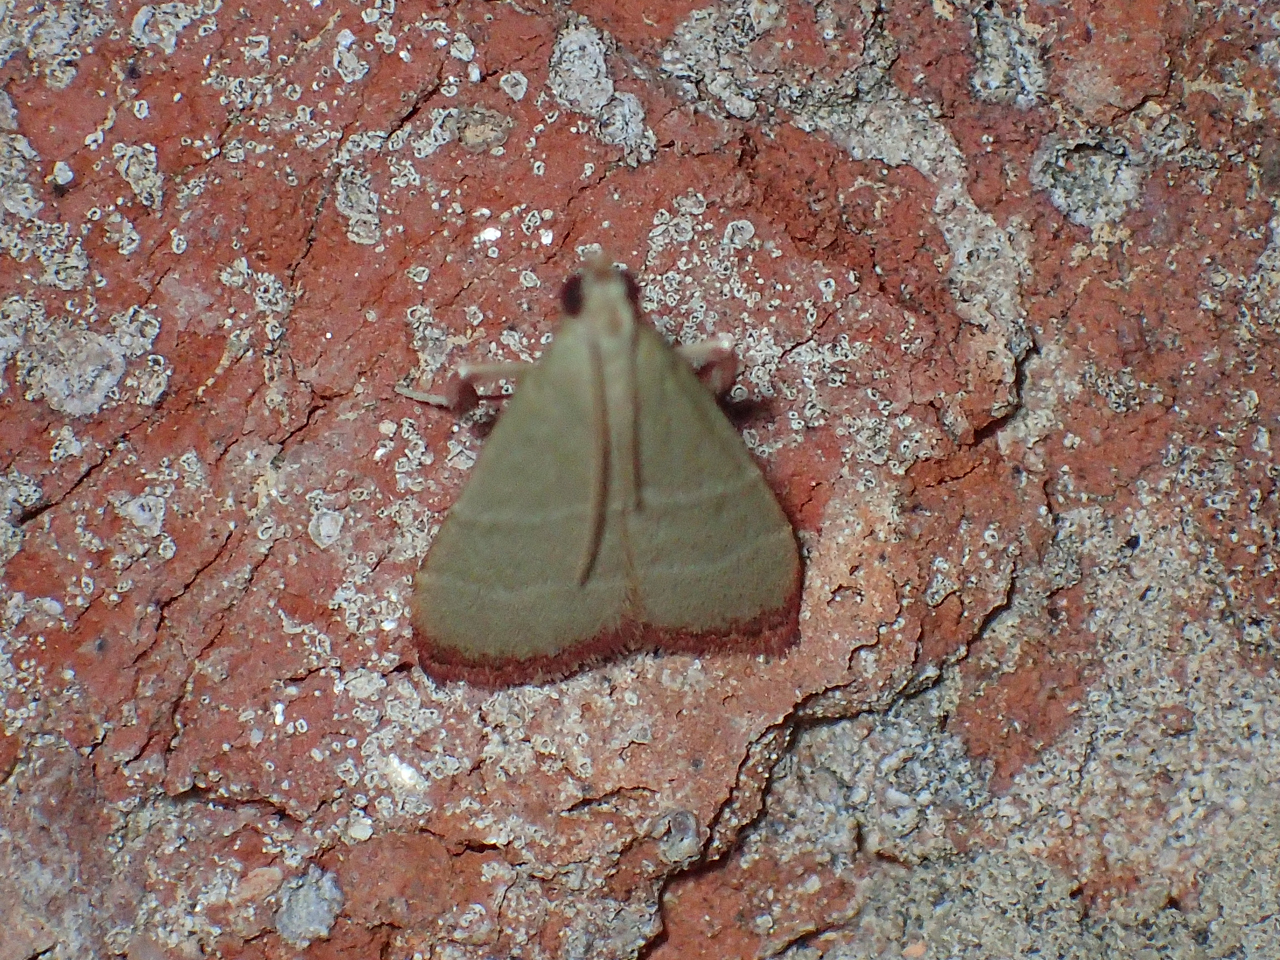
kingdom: Animalia
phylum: Arthropoda
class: Insecta
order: Lepidoptera
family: Pyralidae
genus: Arta
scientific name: Arta olivalis
